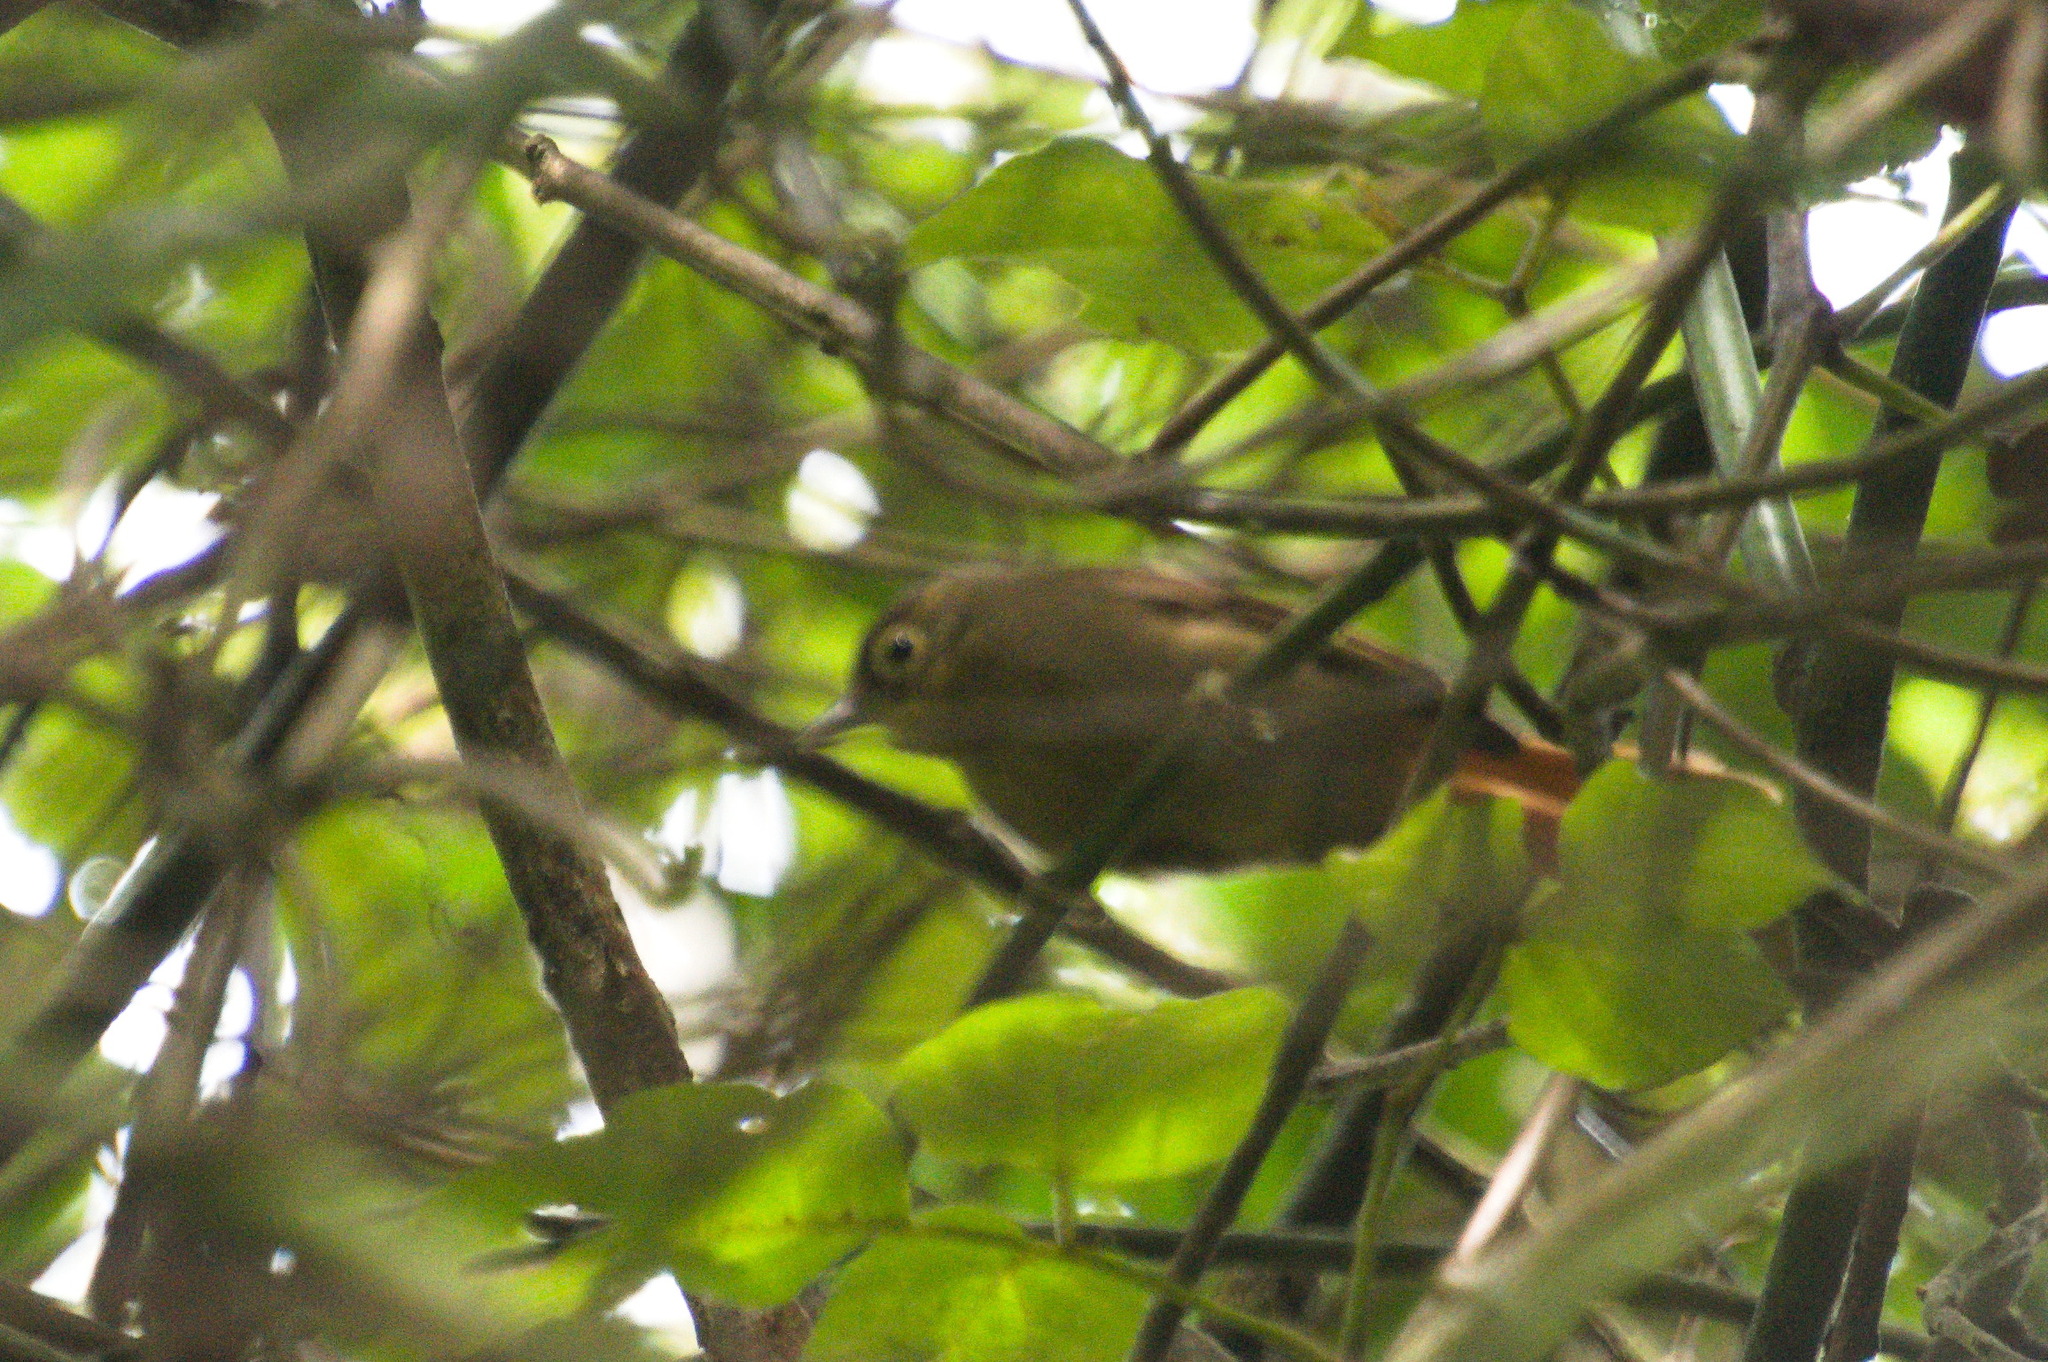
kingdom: Animalia
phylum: Chordata
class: Aves
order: Passeriformes
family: Furnariidae
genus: Anabacerthia
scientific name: Anabacerthia striaticollis
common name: Montane foliage-gleaner
